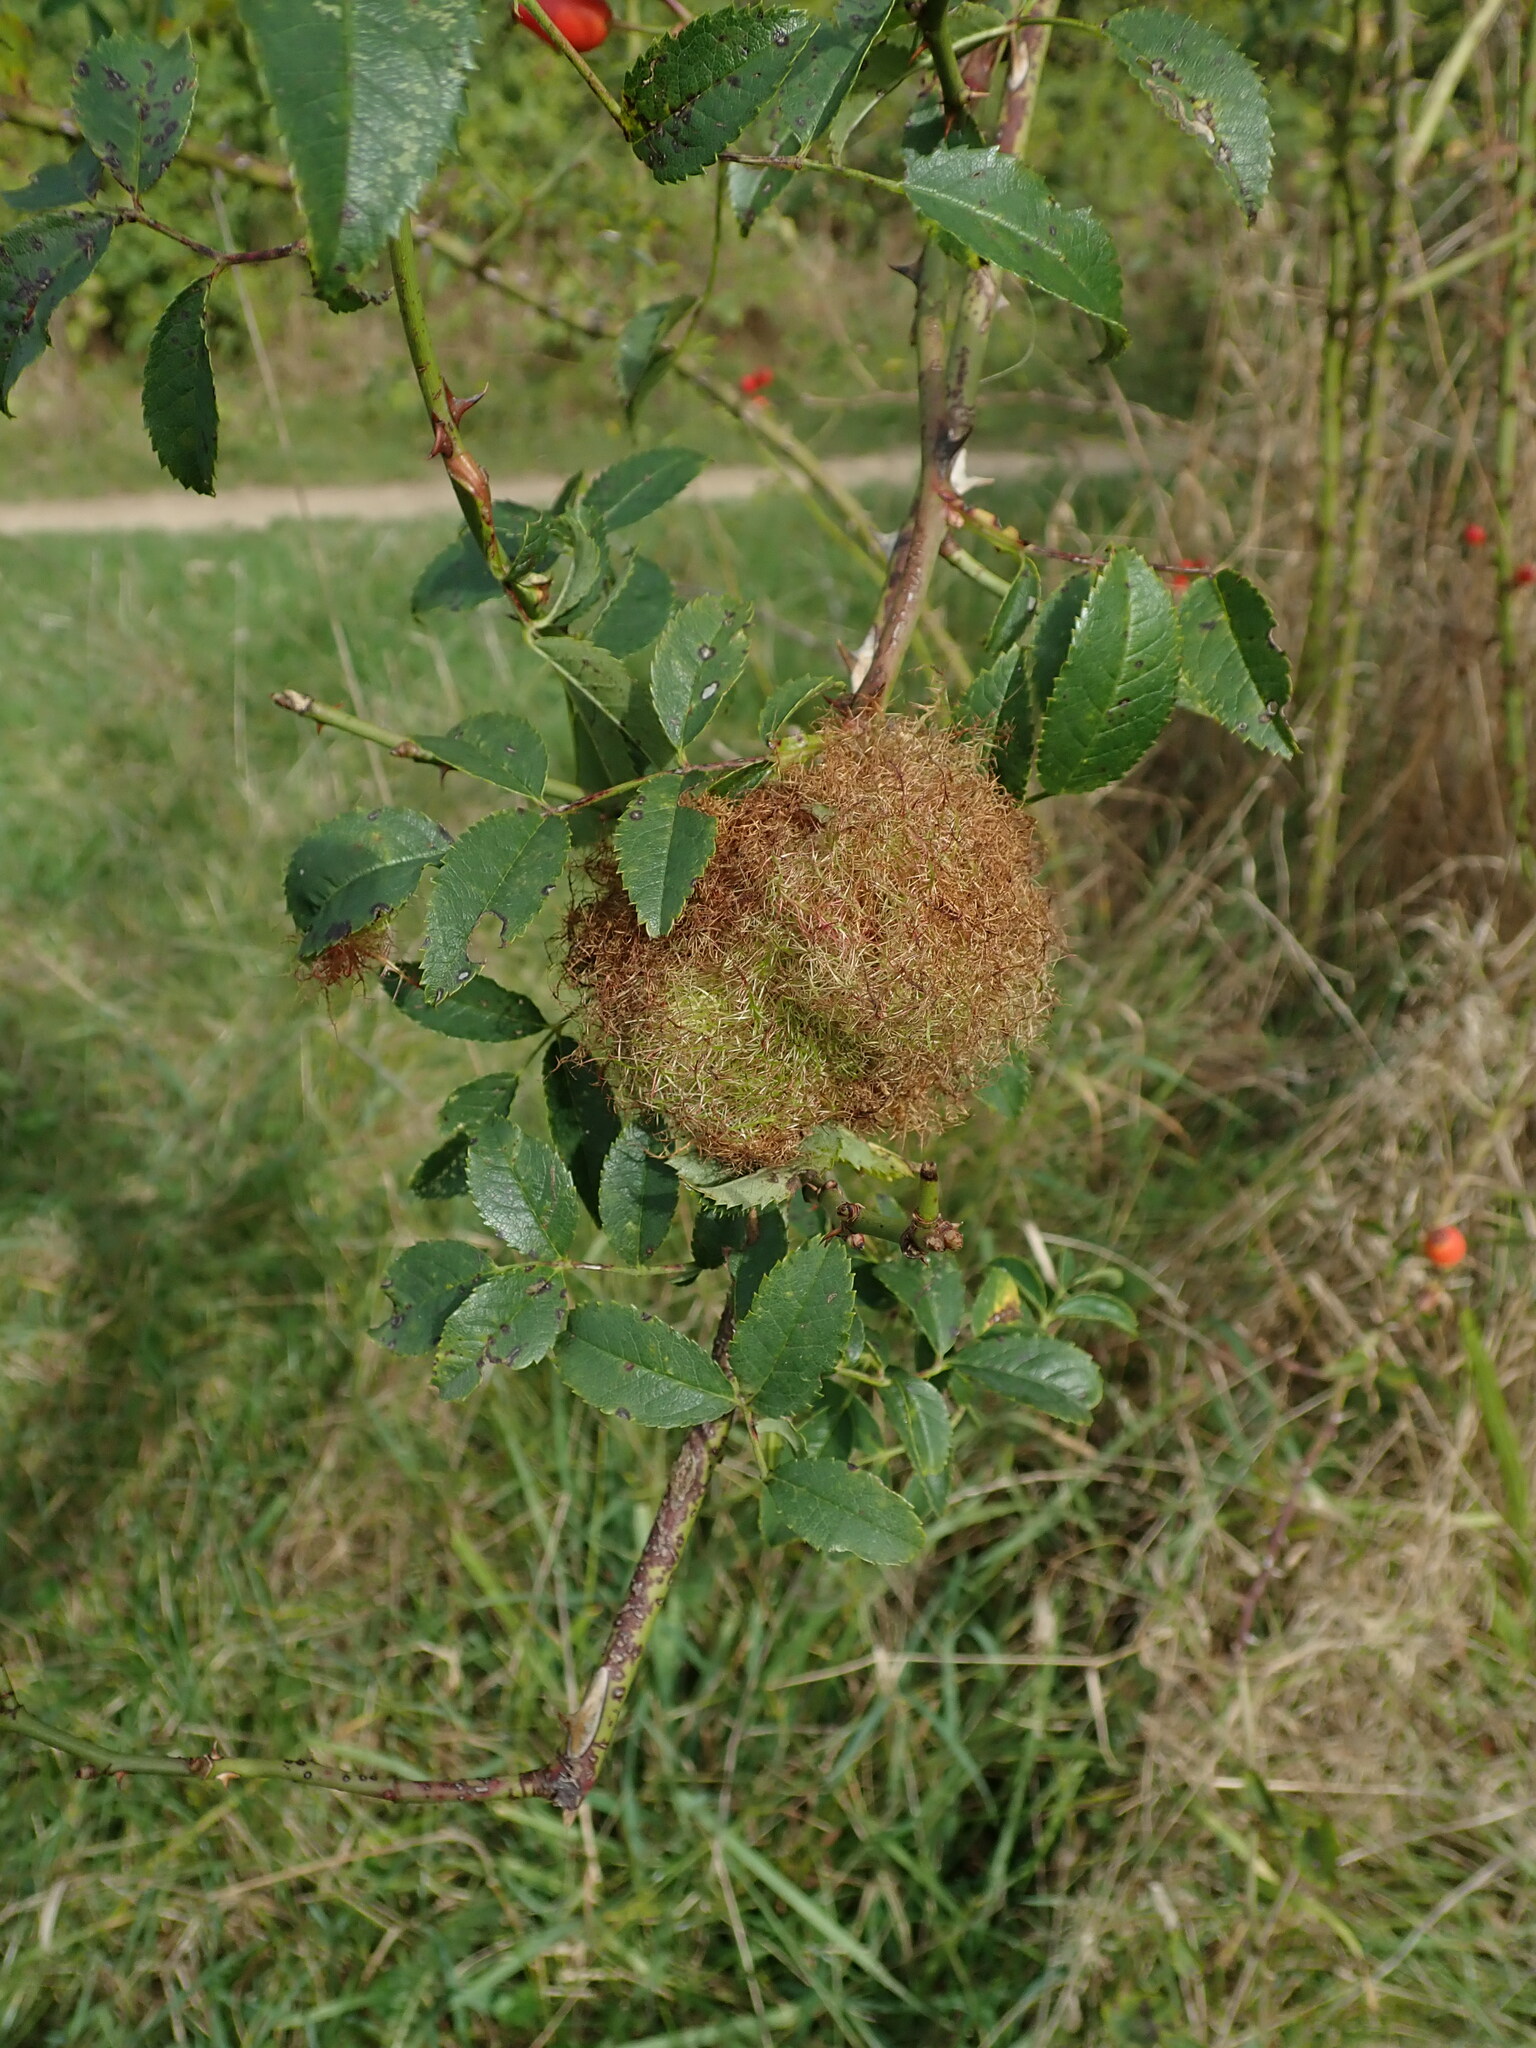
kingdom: Animalia
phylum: Arthropoda
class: Insecta
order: Hymenoptera
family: Cynipidae
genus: Diplolepis
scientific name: Diplolepis rosae
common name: Bedeguar gall
